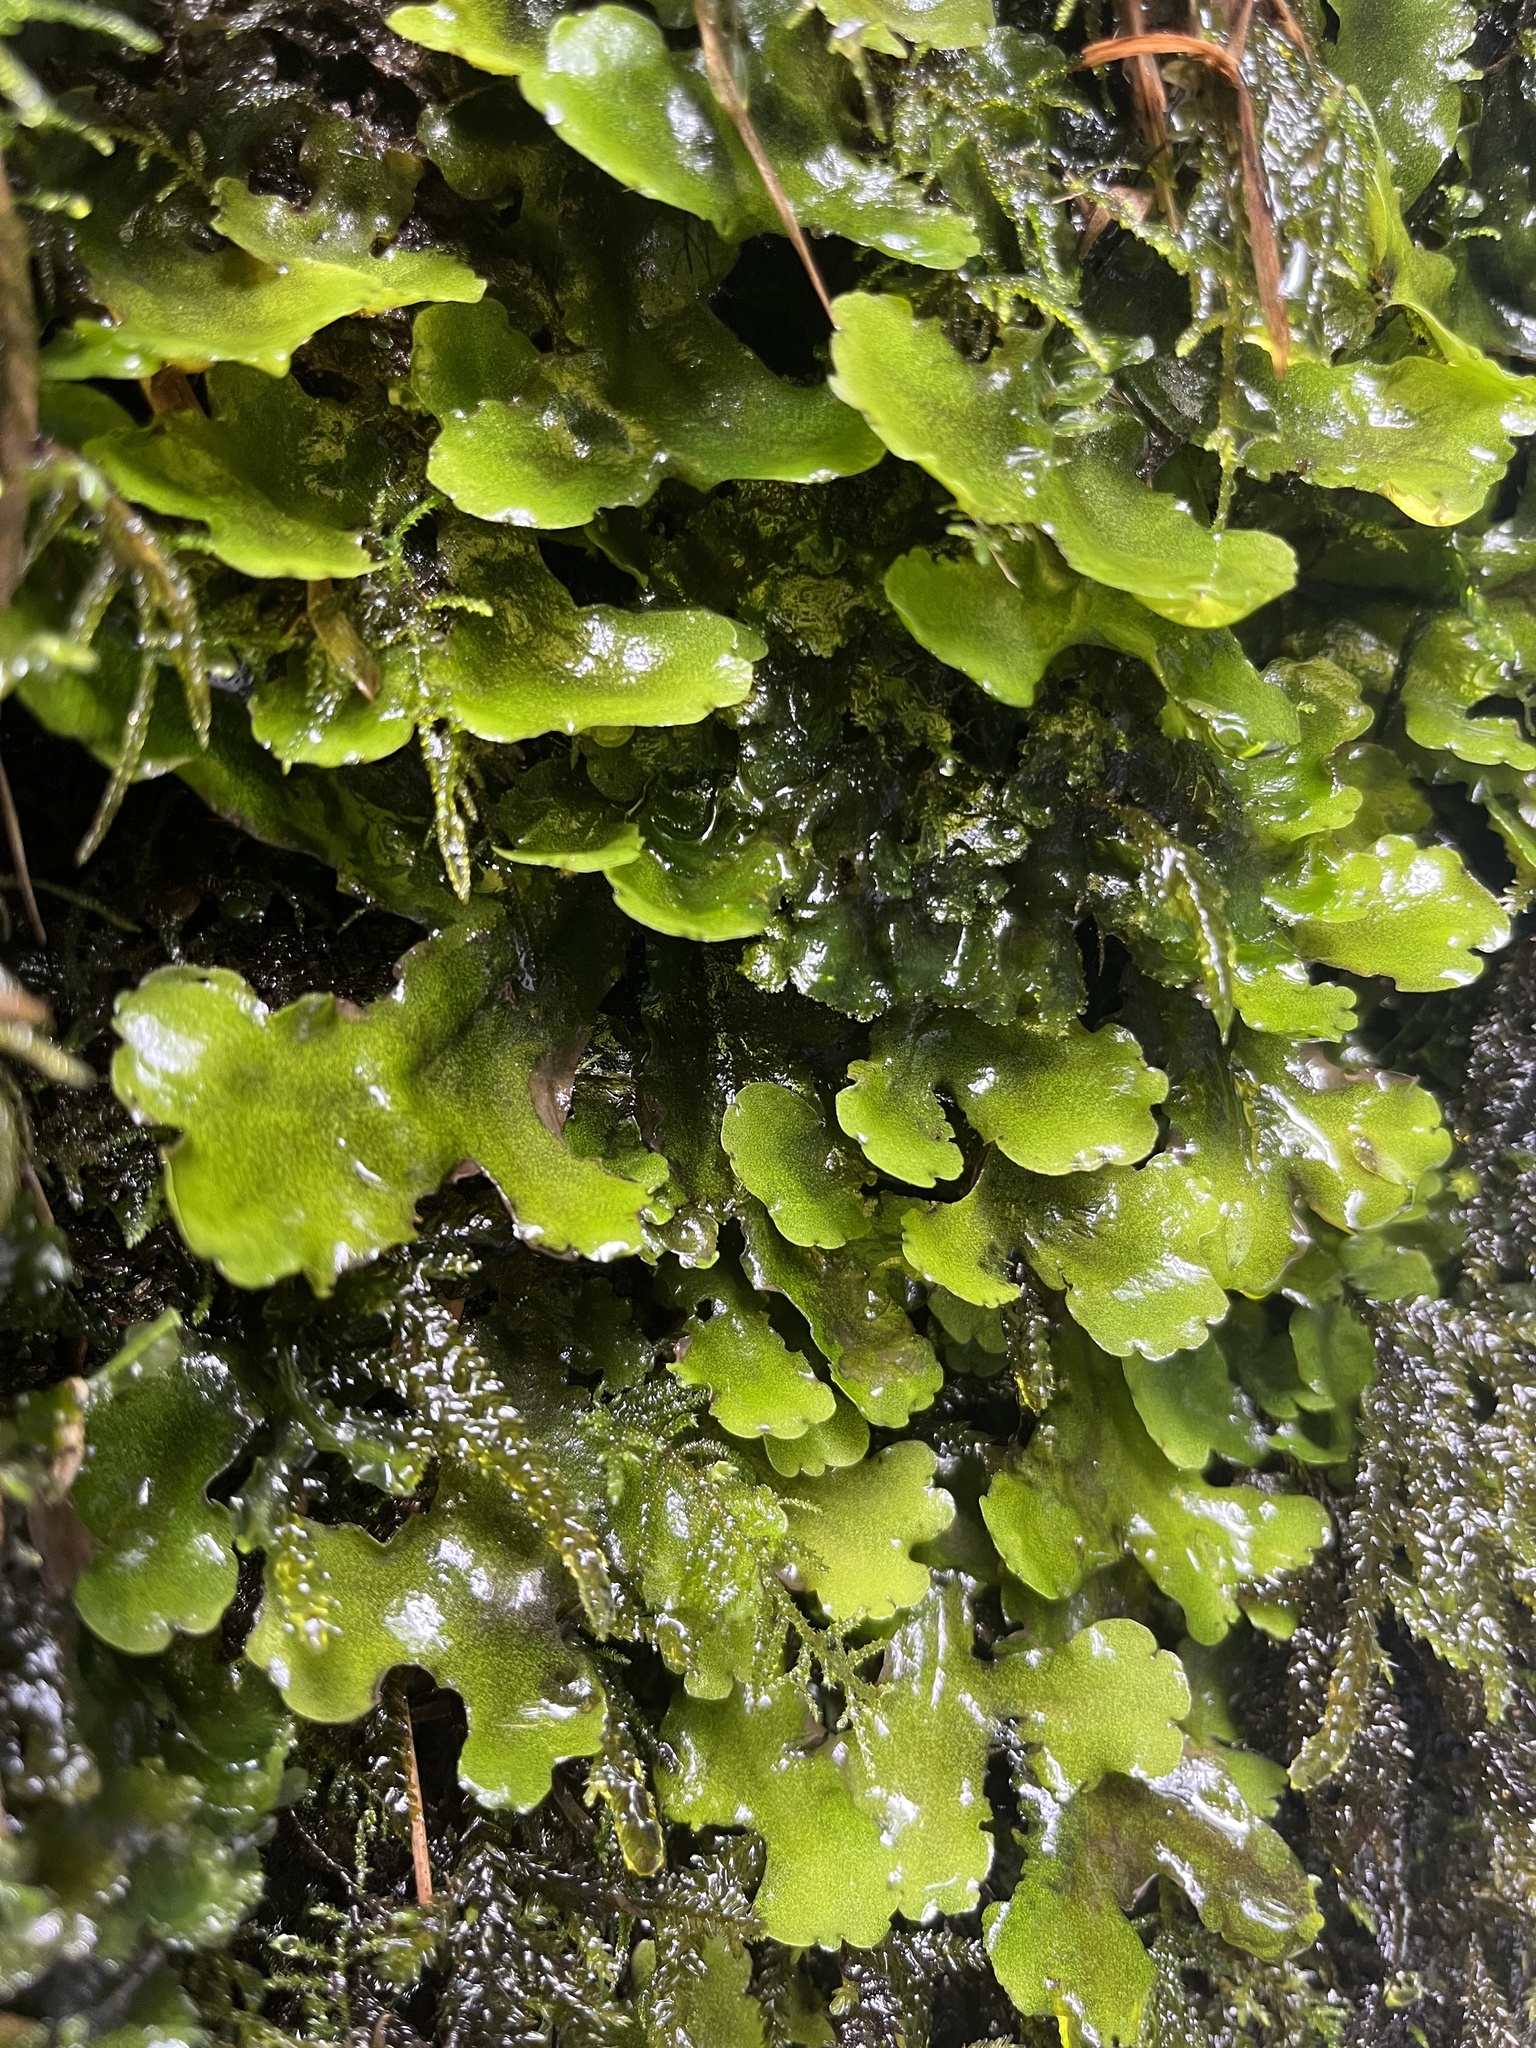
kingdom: Plantae
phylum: Marchantiophyta
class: Marchantiopsida
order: Marchantiales
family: Monocleaceae
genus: Monoclea
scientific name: Monoclea gottschei
